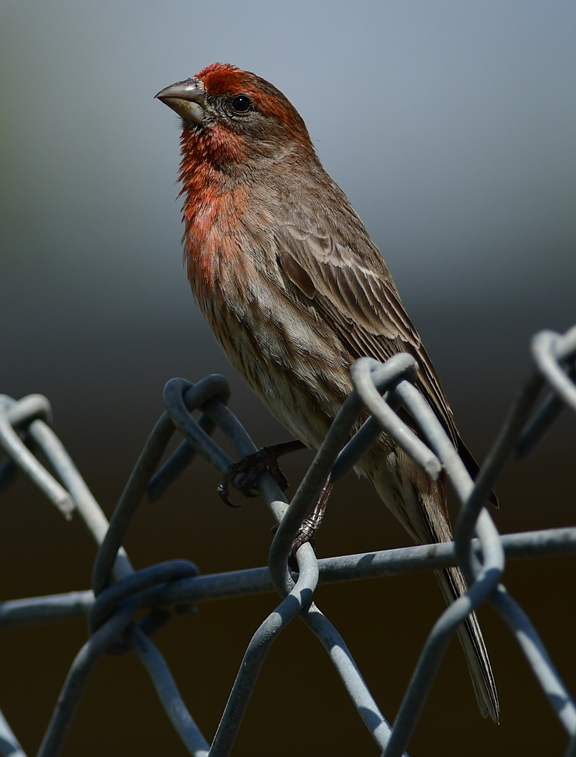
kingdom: Animalia
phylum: Chordata
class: Aves
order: Passeriformes
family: Fringillidae
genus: Haemorhous
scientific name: Haemorhous mexicanus
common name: House finch
